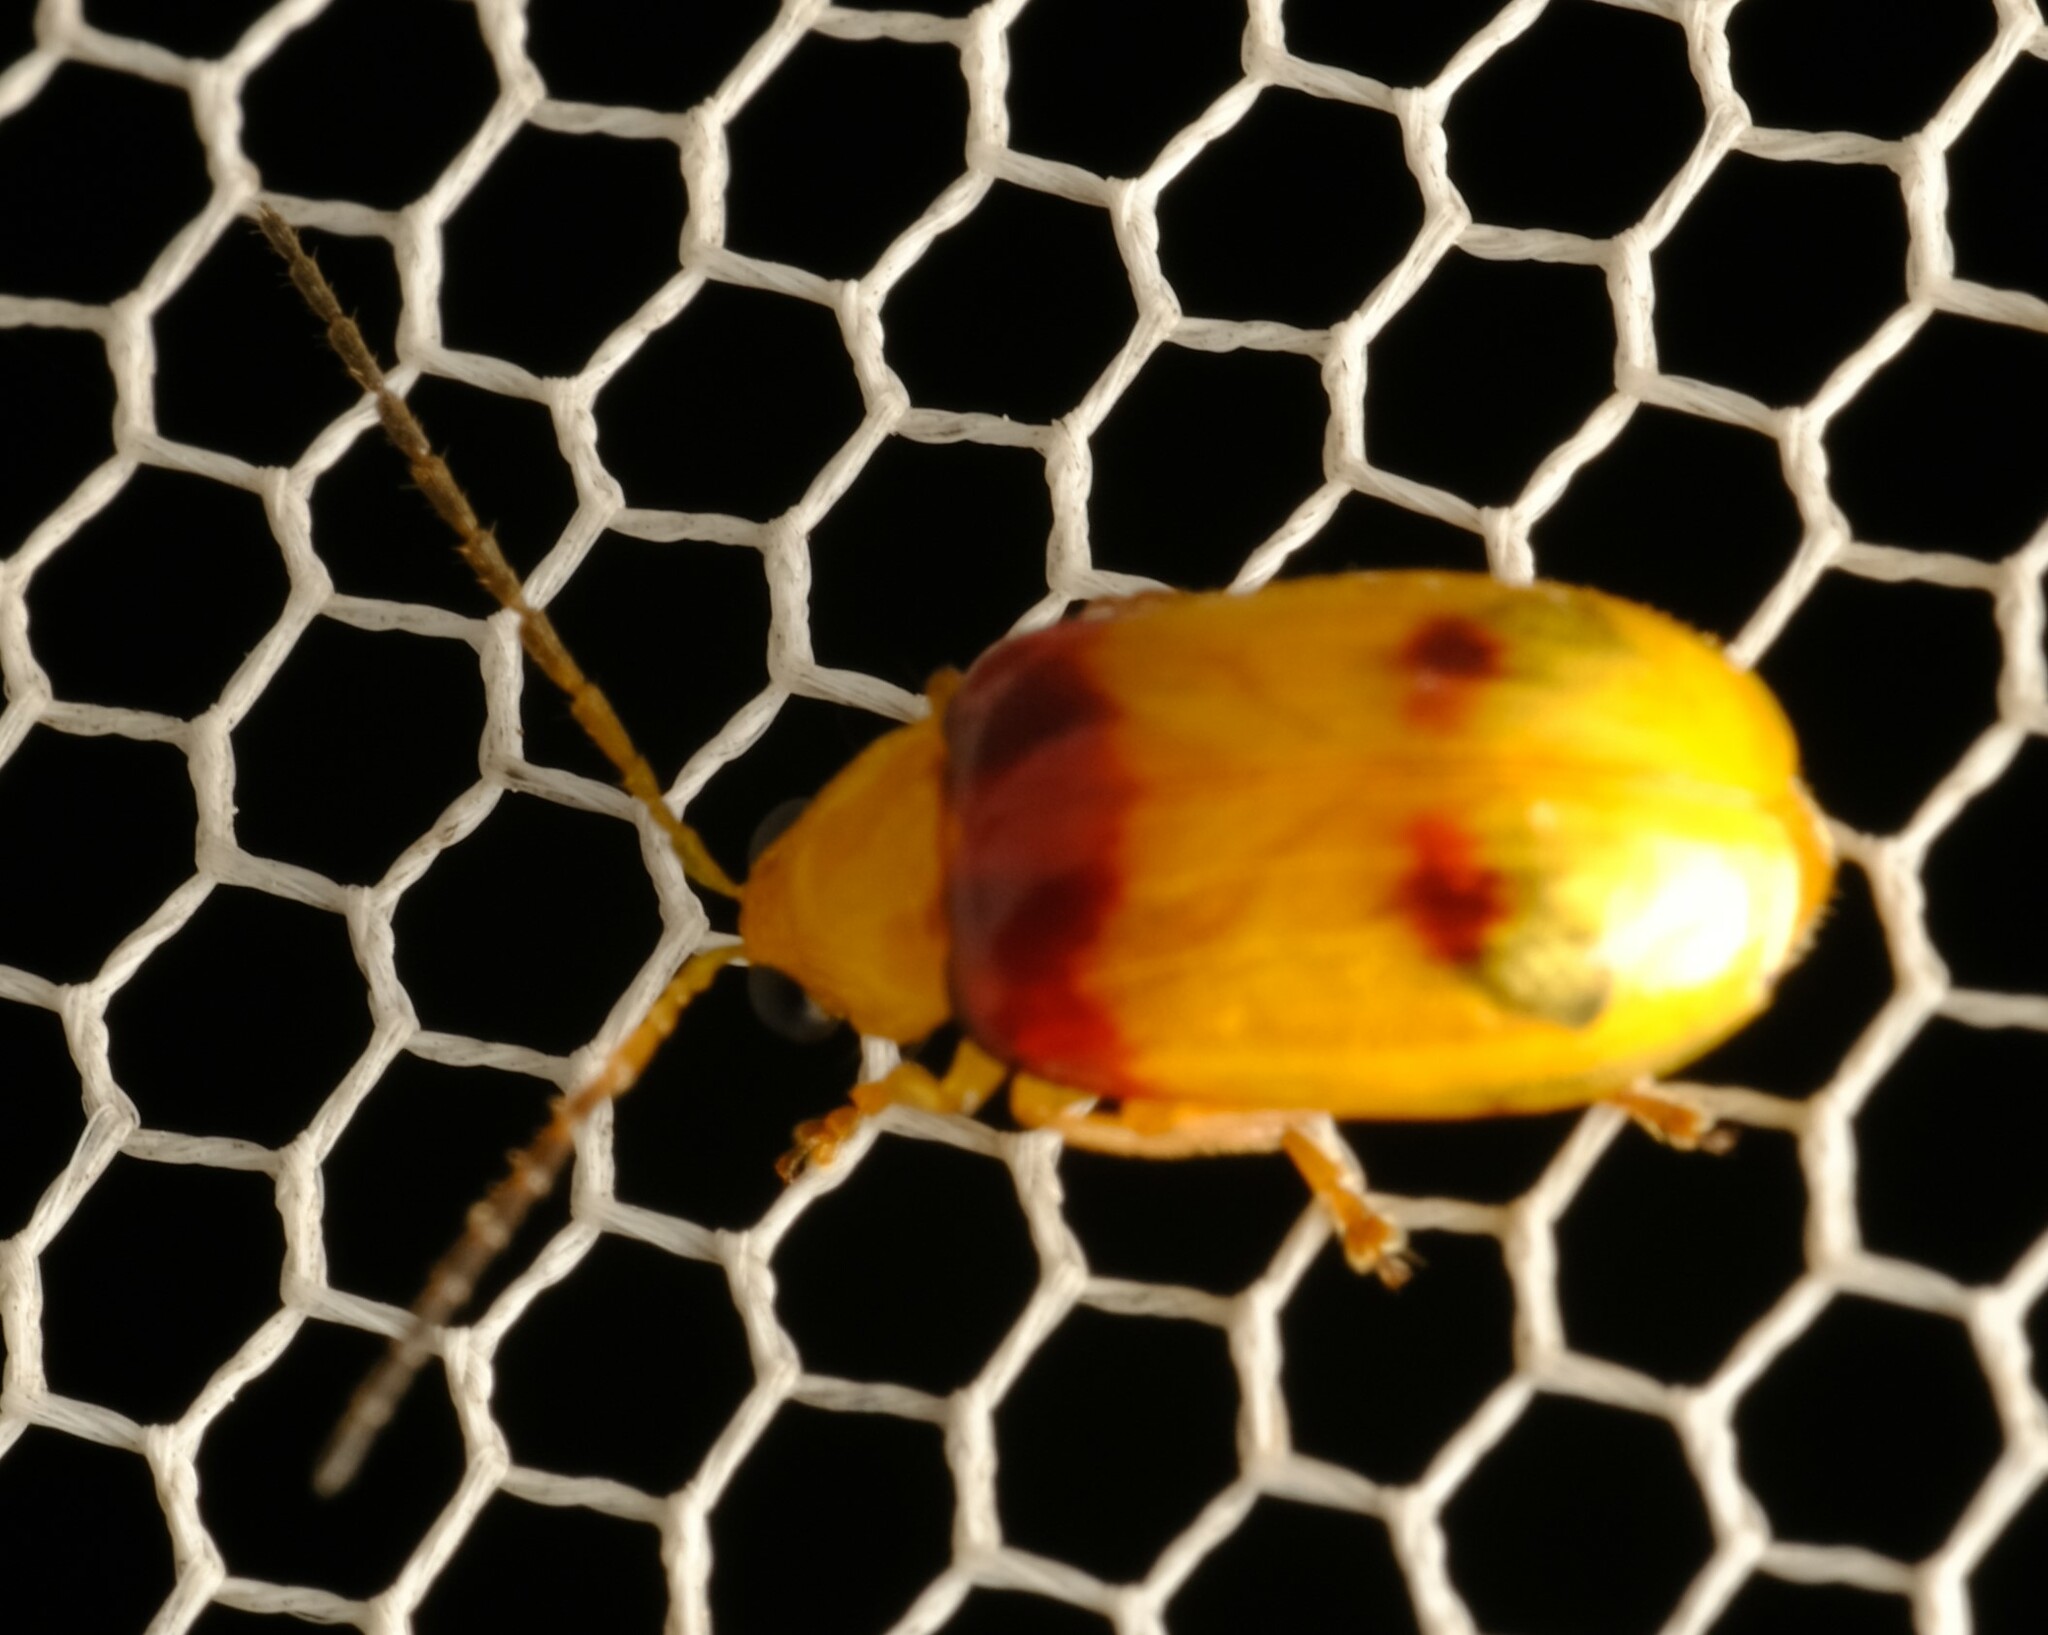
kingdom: Animalia
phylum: Arthropoda
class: Insecta
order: Coleoptera
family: Chrysomelidae
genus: Monolepta
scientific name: Monolepta
